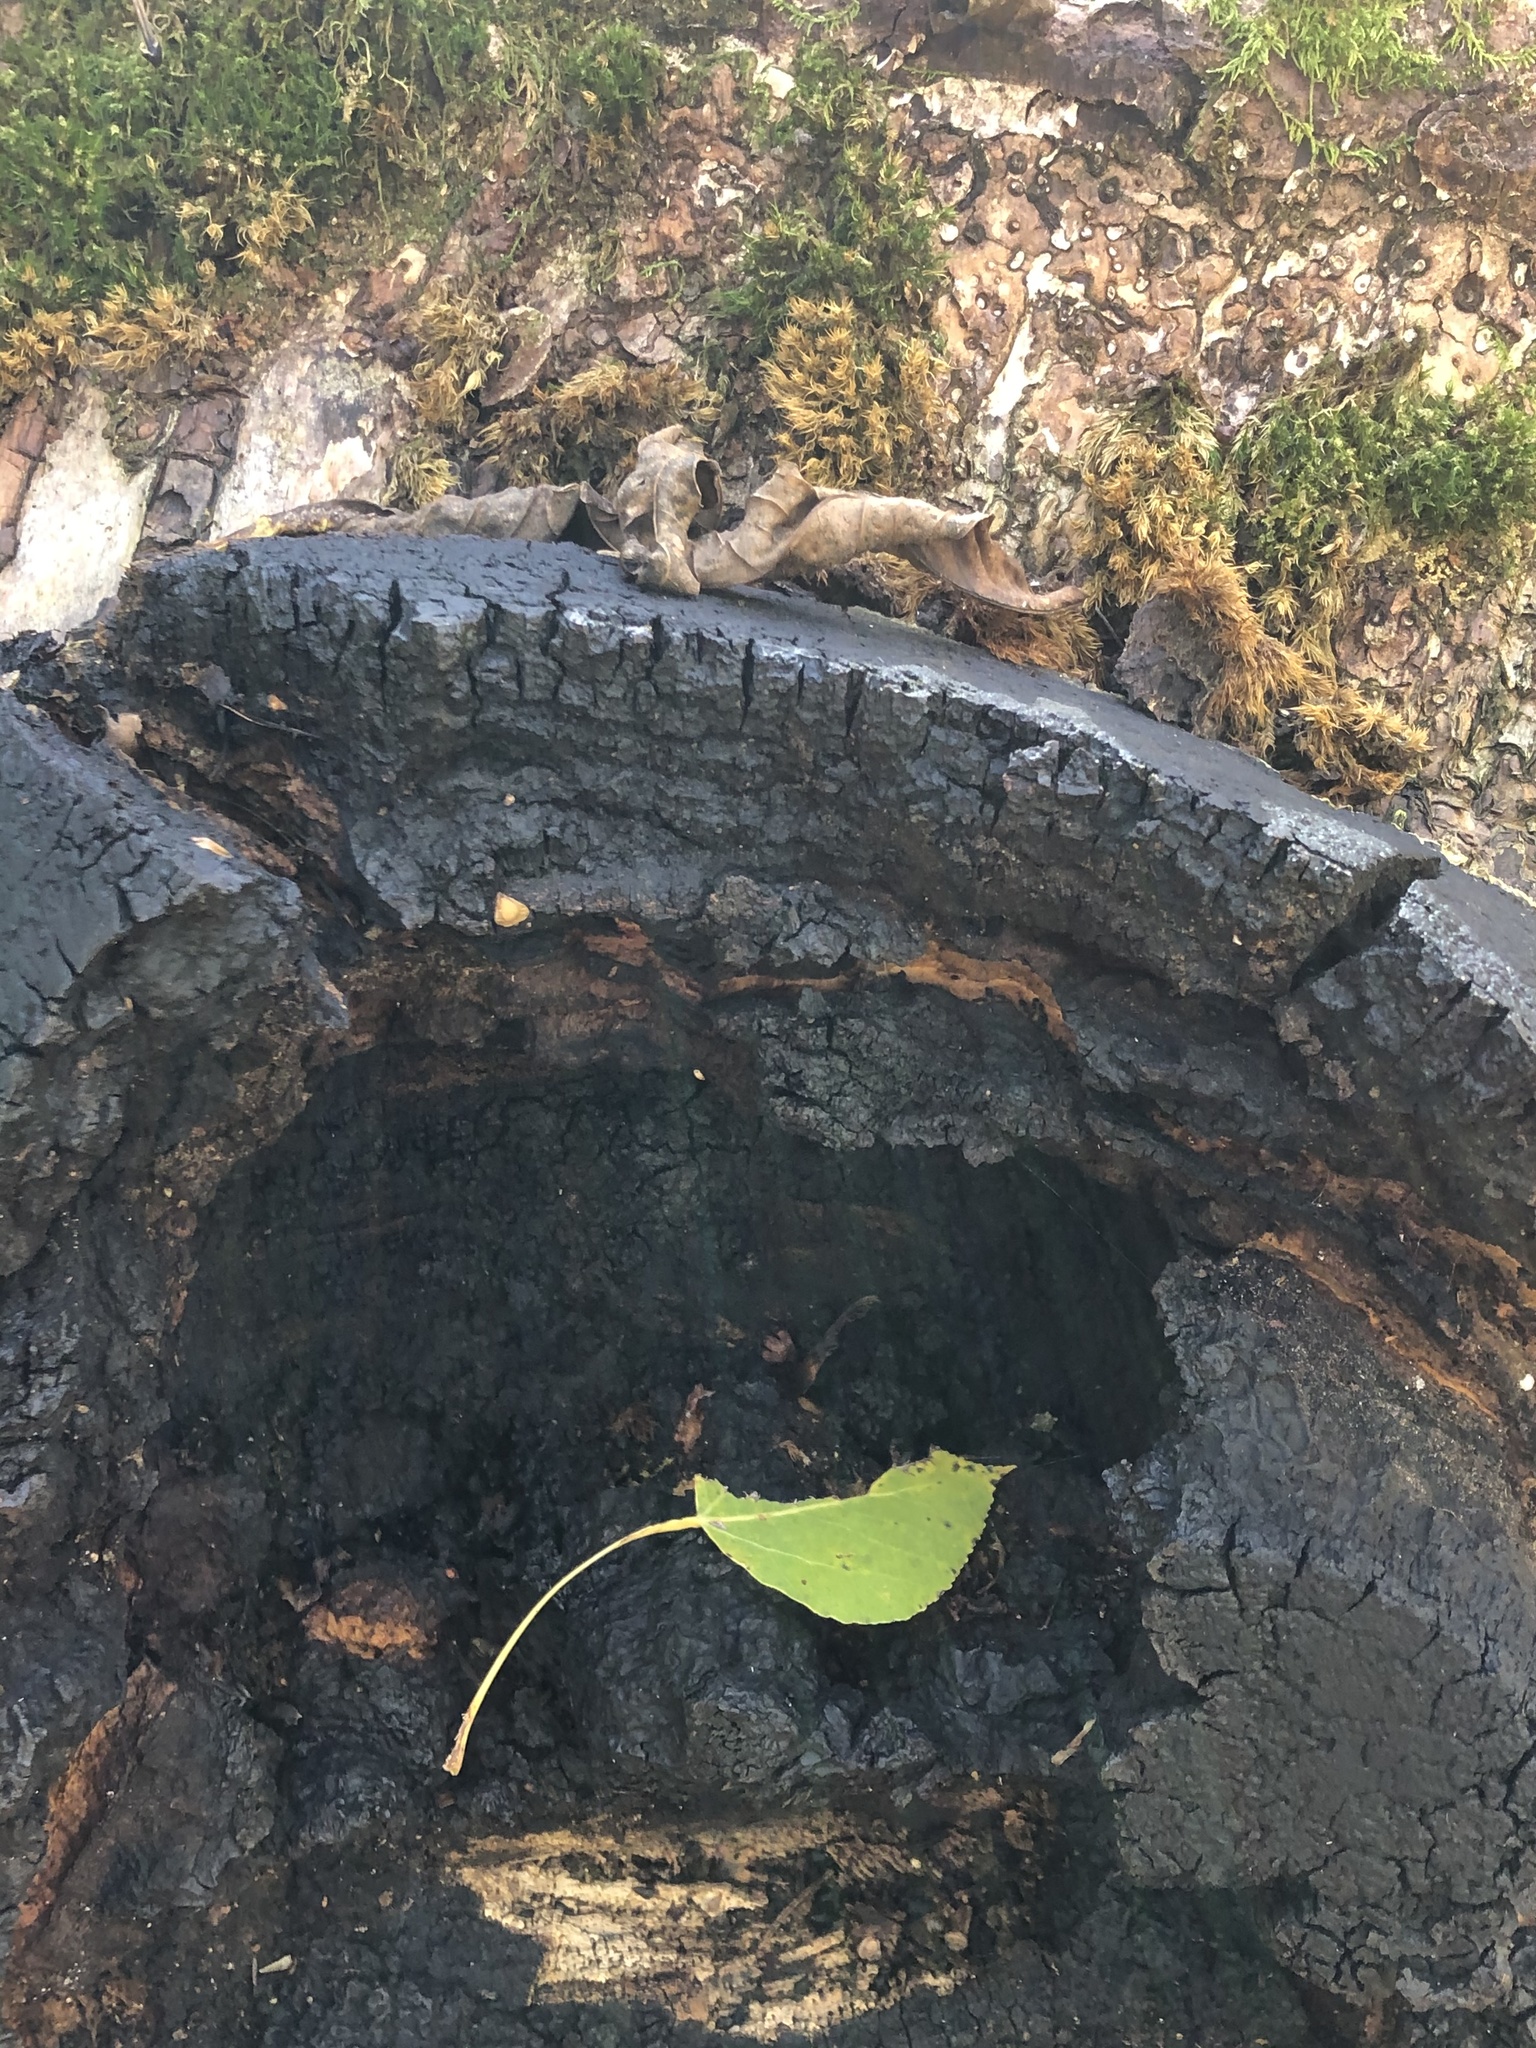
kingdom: Fungi
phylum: Basidiomycota
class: Agaricomycetes
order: Hymenochaetales
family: Hymenochaetaceae
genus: Inonotus
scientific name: Inonotus obliquus
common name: Chaga
